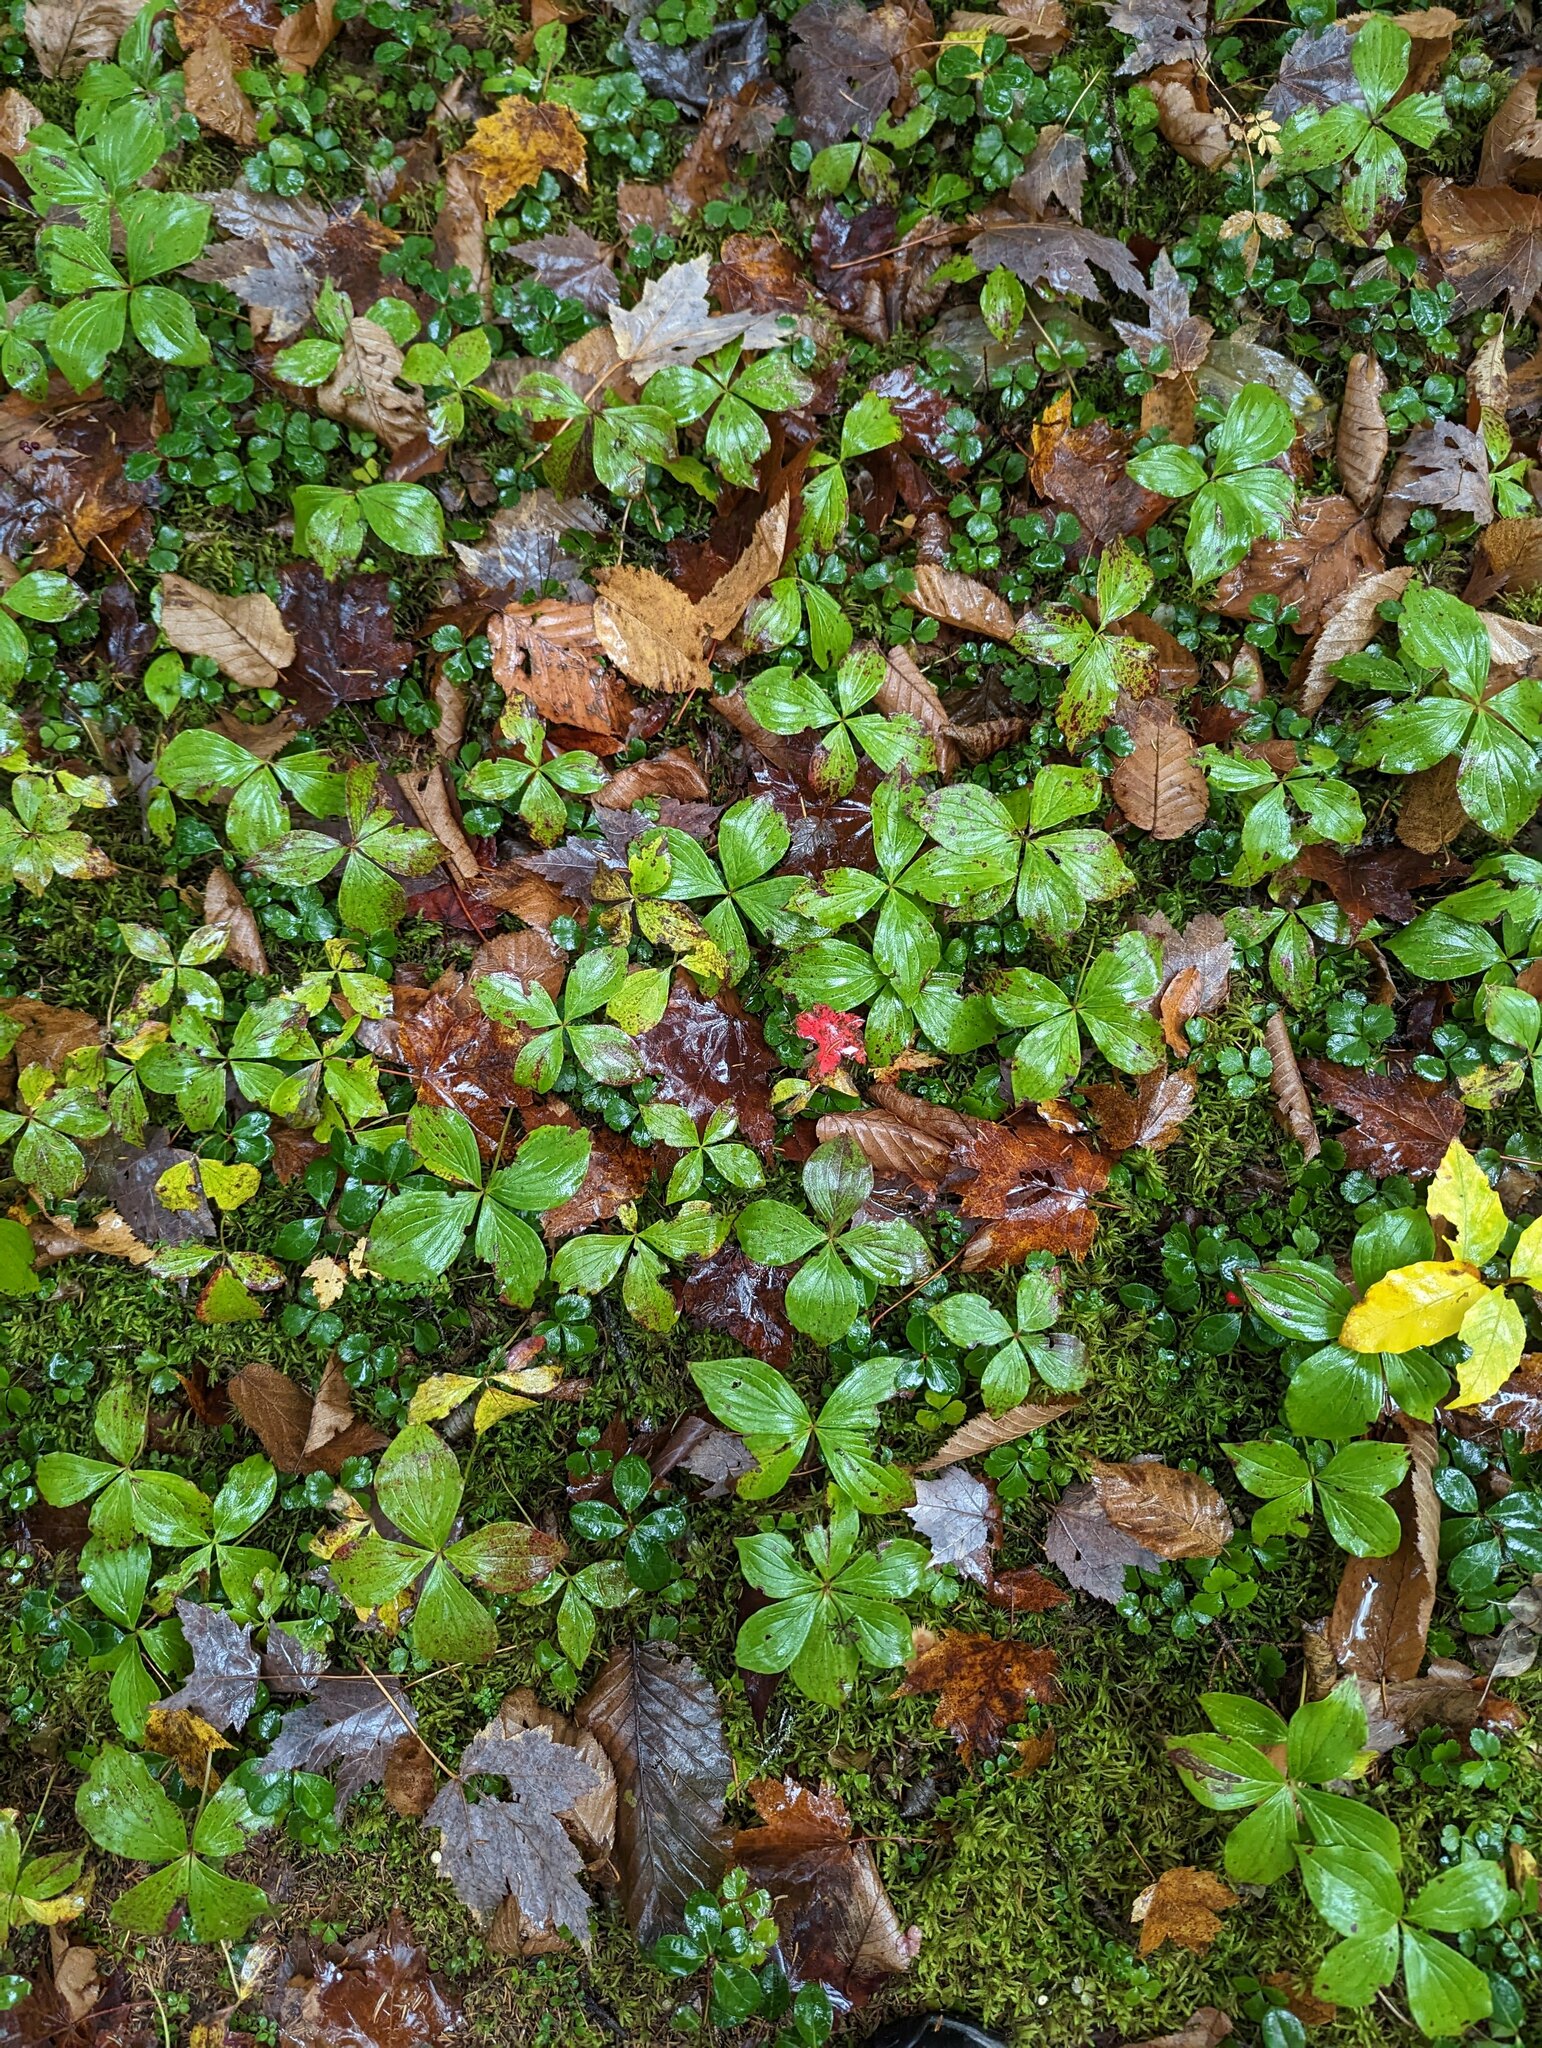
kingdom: Plantae
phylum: Tracheophyta
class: Magnoliopsida
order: Cornales
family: Cornaceae
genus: Cornus
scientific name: Cornus canadensis
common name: Creeping dogwood
